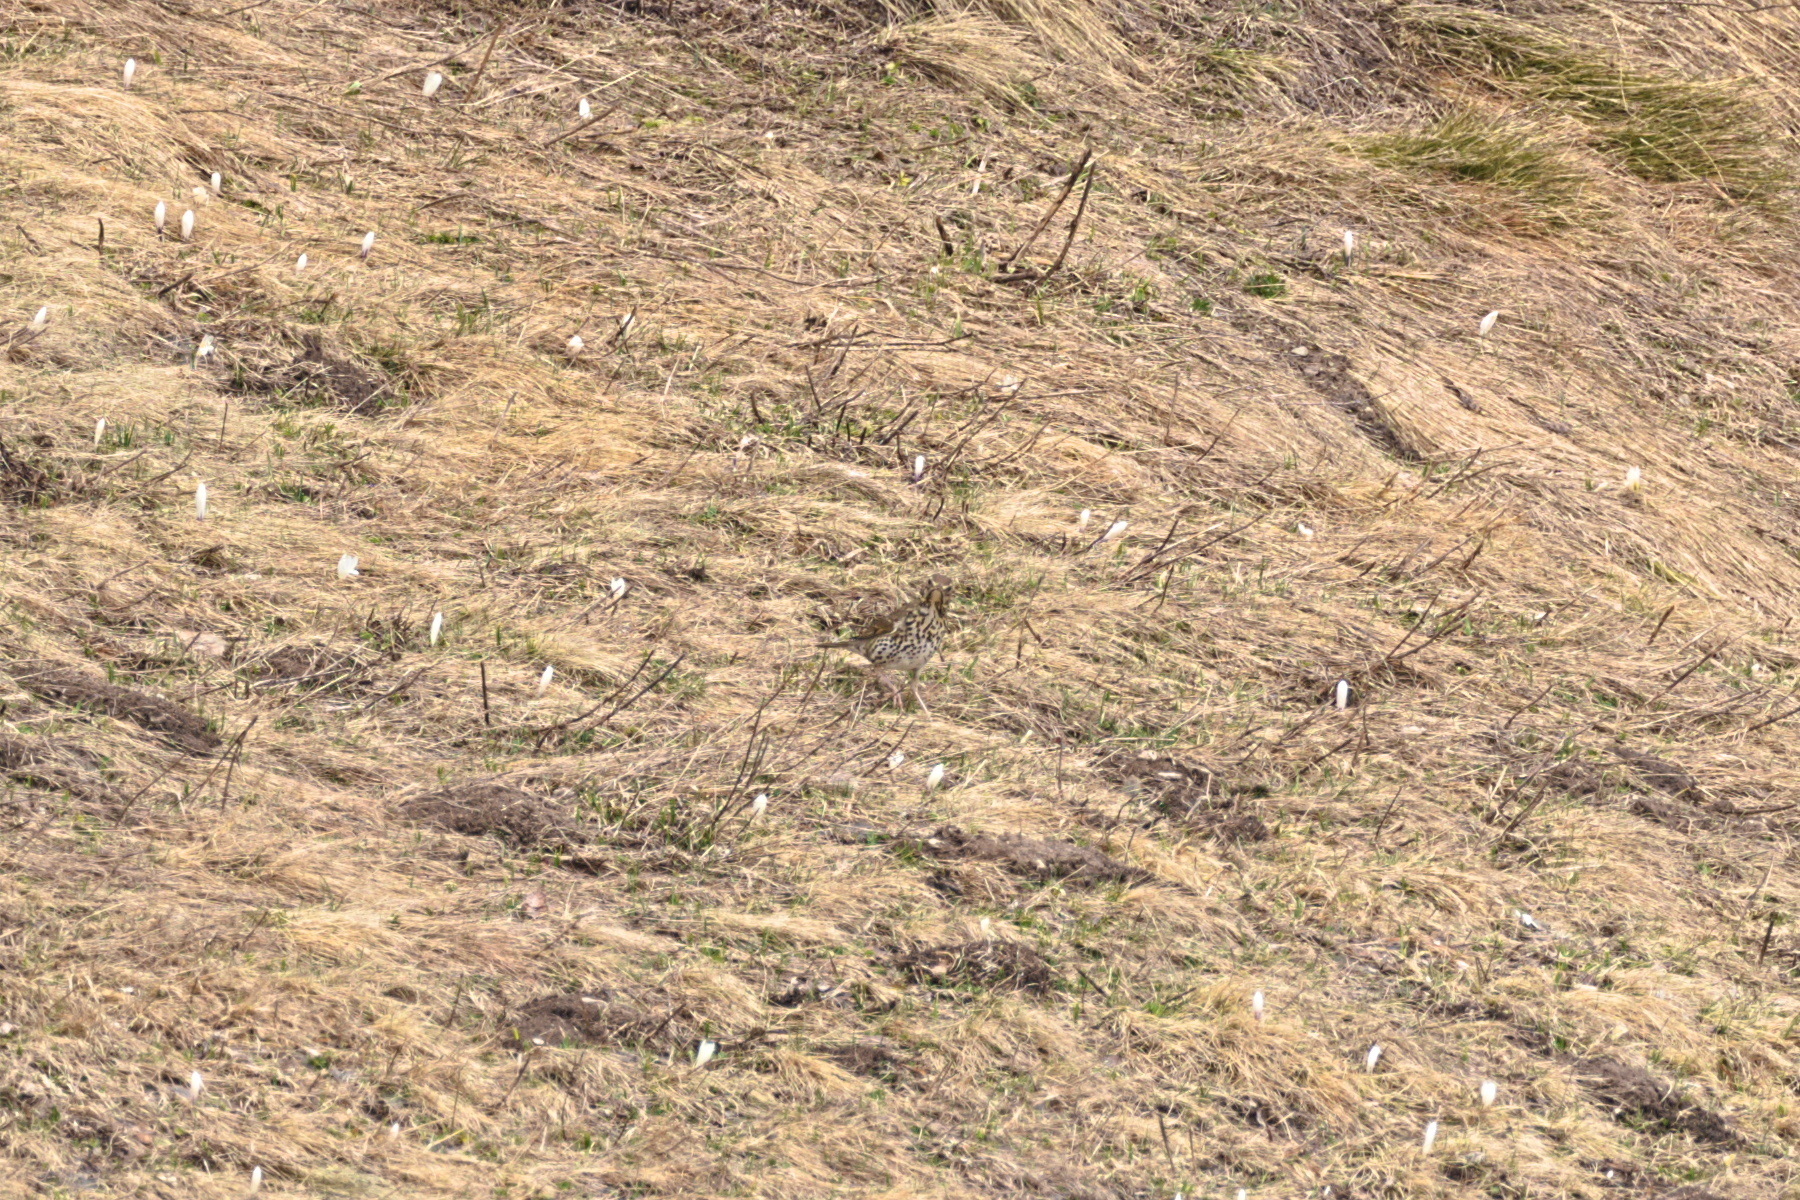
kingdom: Animalia
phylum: Chordata
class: Aves
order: Passeriformes
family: Turdidae
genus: Turdus
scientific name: Turdus viscivorus
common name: Mistle thrush
